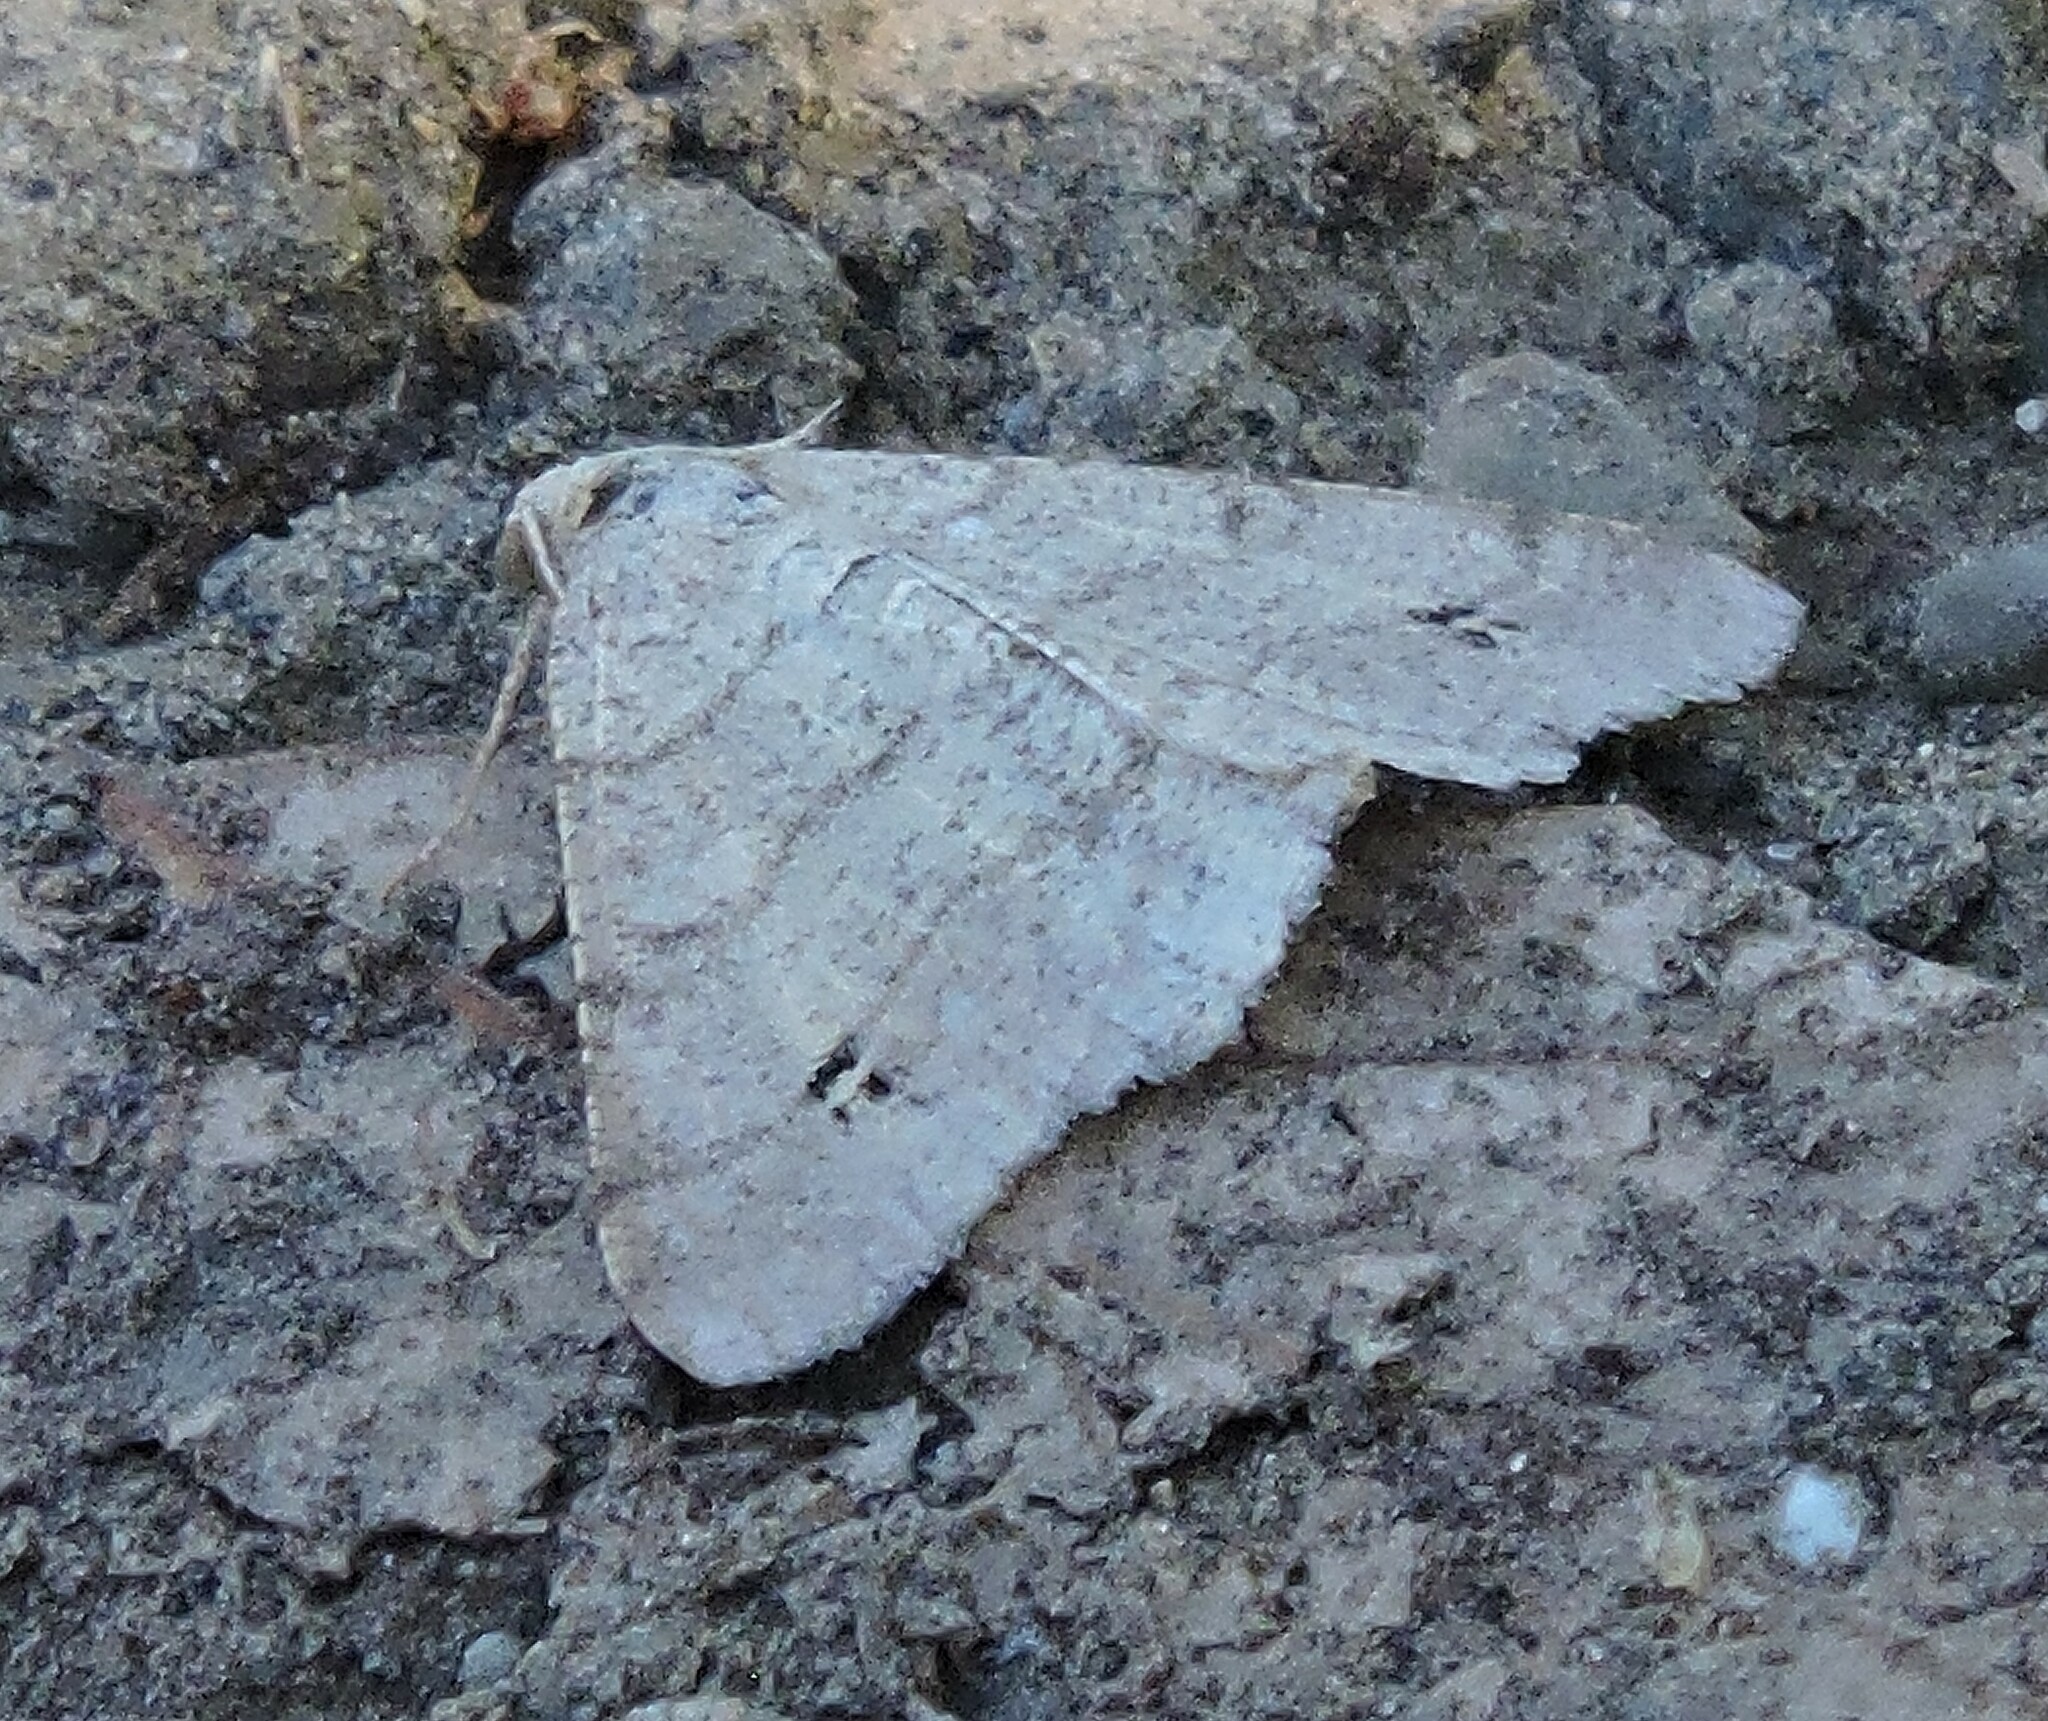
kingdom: Animalia
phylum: Arthropoda
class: Insecta
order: Lepidoptera
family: Geometridae
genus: Digrammia
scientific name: Digrammia muscariata
